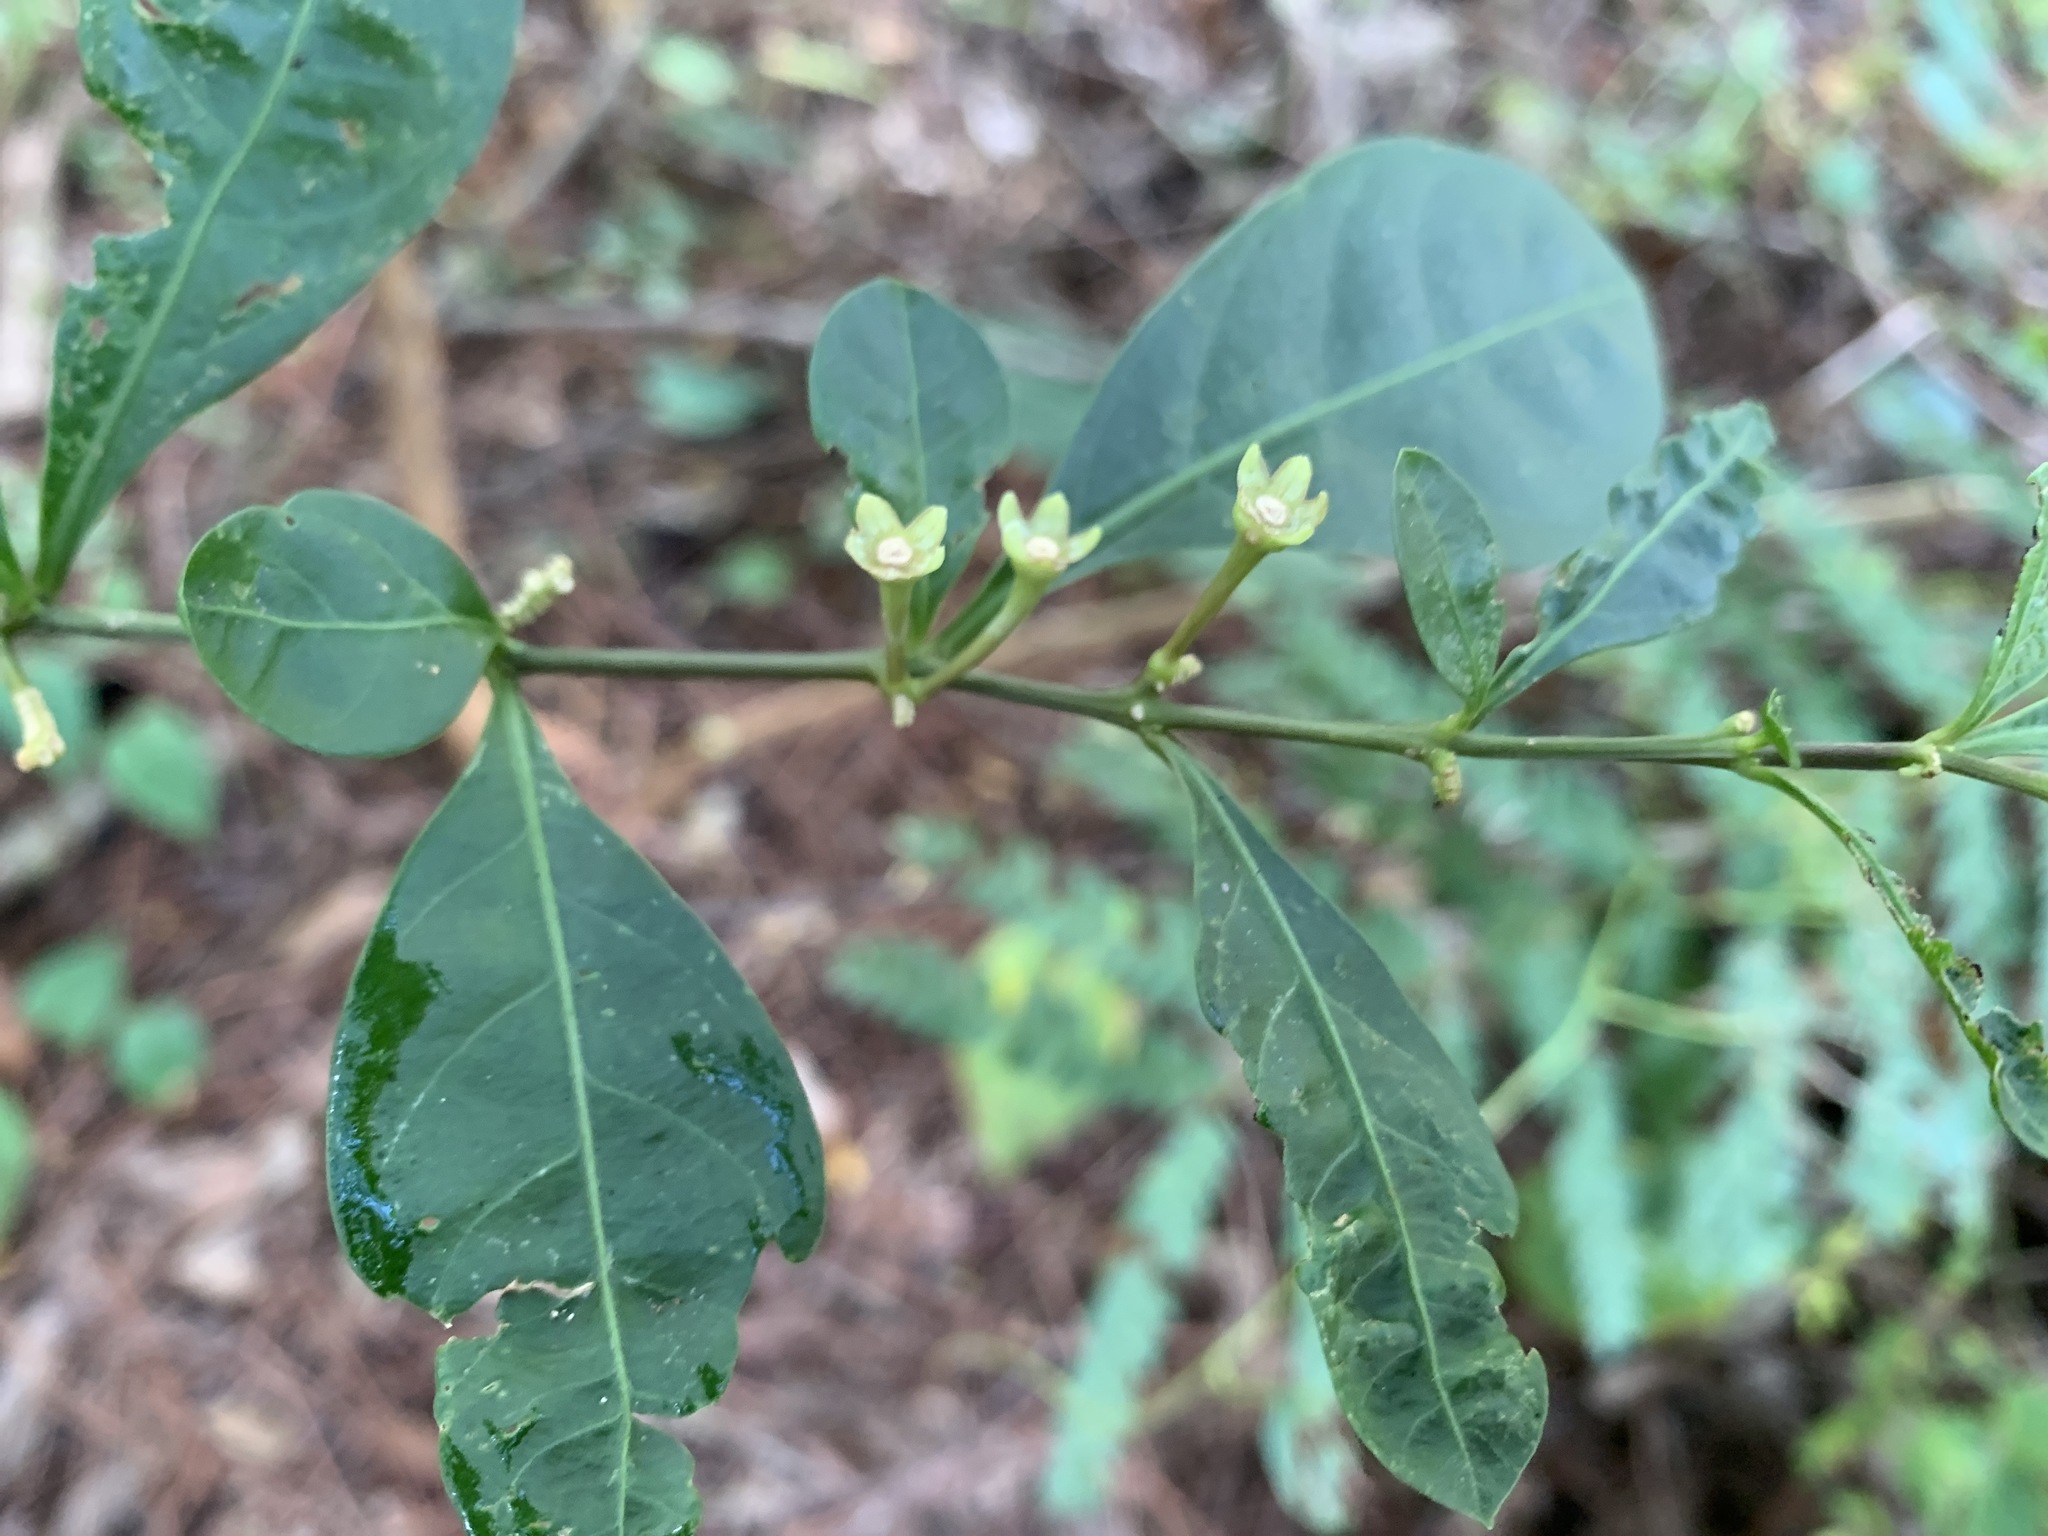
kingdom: Plantae
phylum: Tracheophyta
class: Magnoliopsida
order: Solanales
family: Solanaceae
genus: Solanum
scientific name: Solanum diphyllum
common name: Twoleaf nightshade
